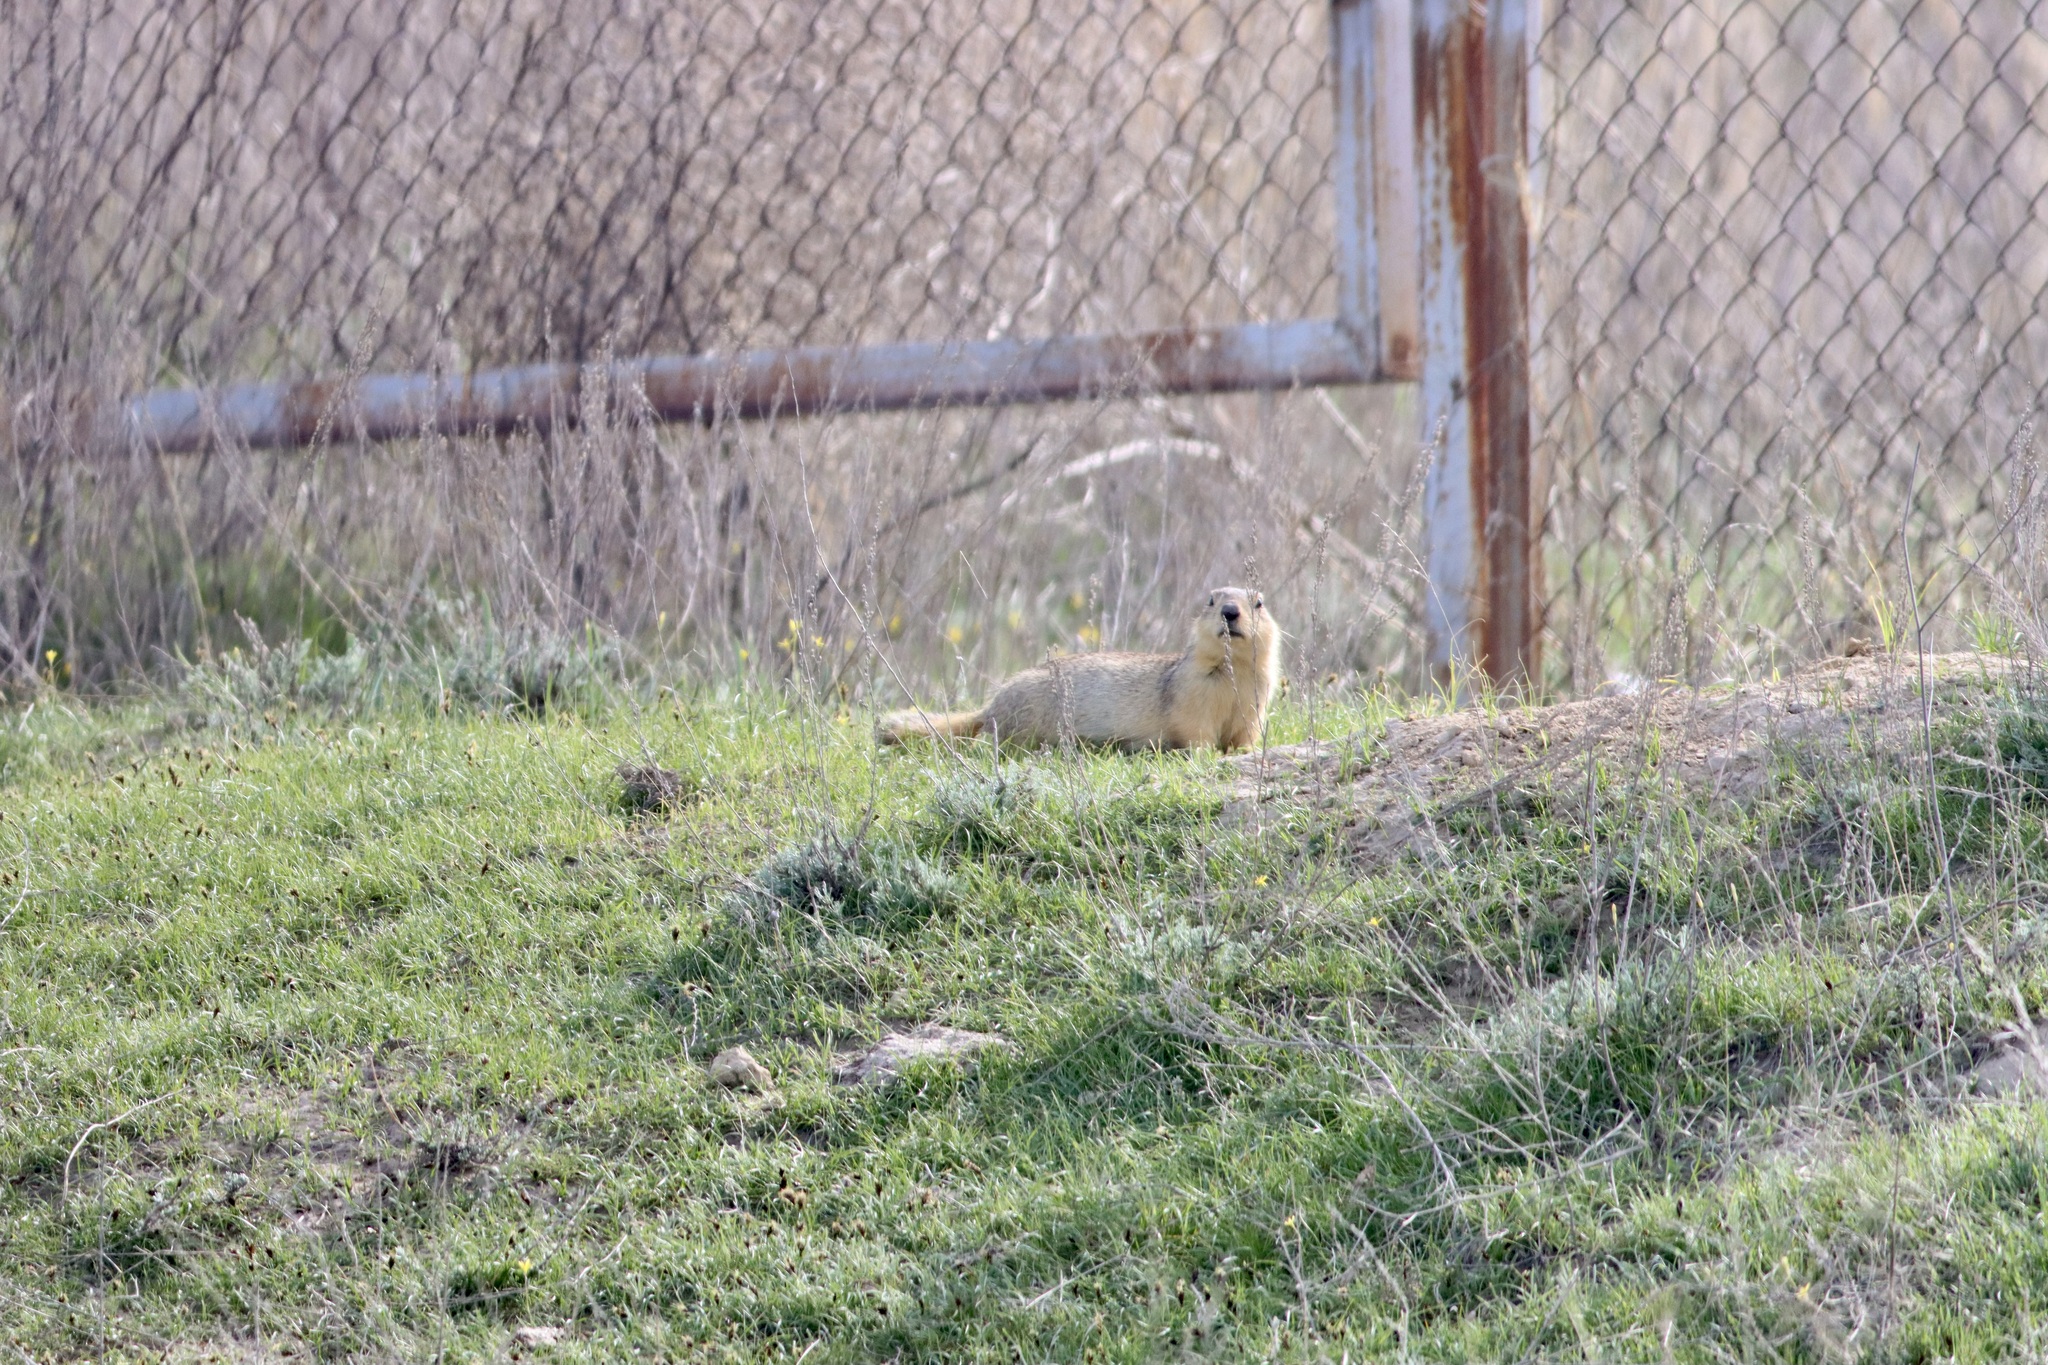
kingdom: Animalia
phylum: Chordata
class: Mammalia
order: Rodentia
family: Sciuridae
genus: Spermophilus
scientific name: Spermophilus fulvus
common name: Yellow ground squirrel
